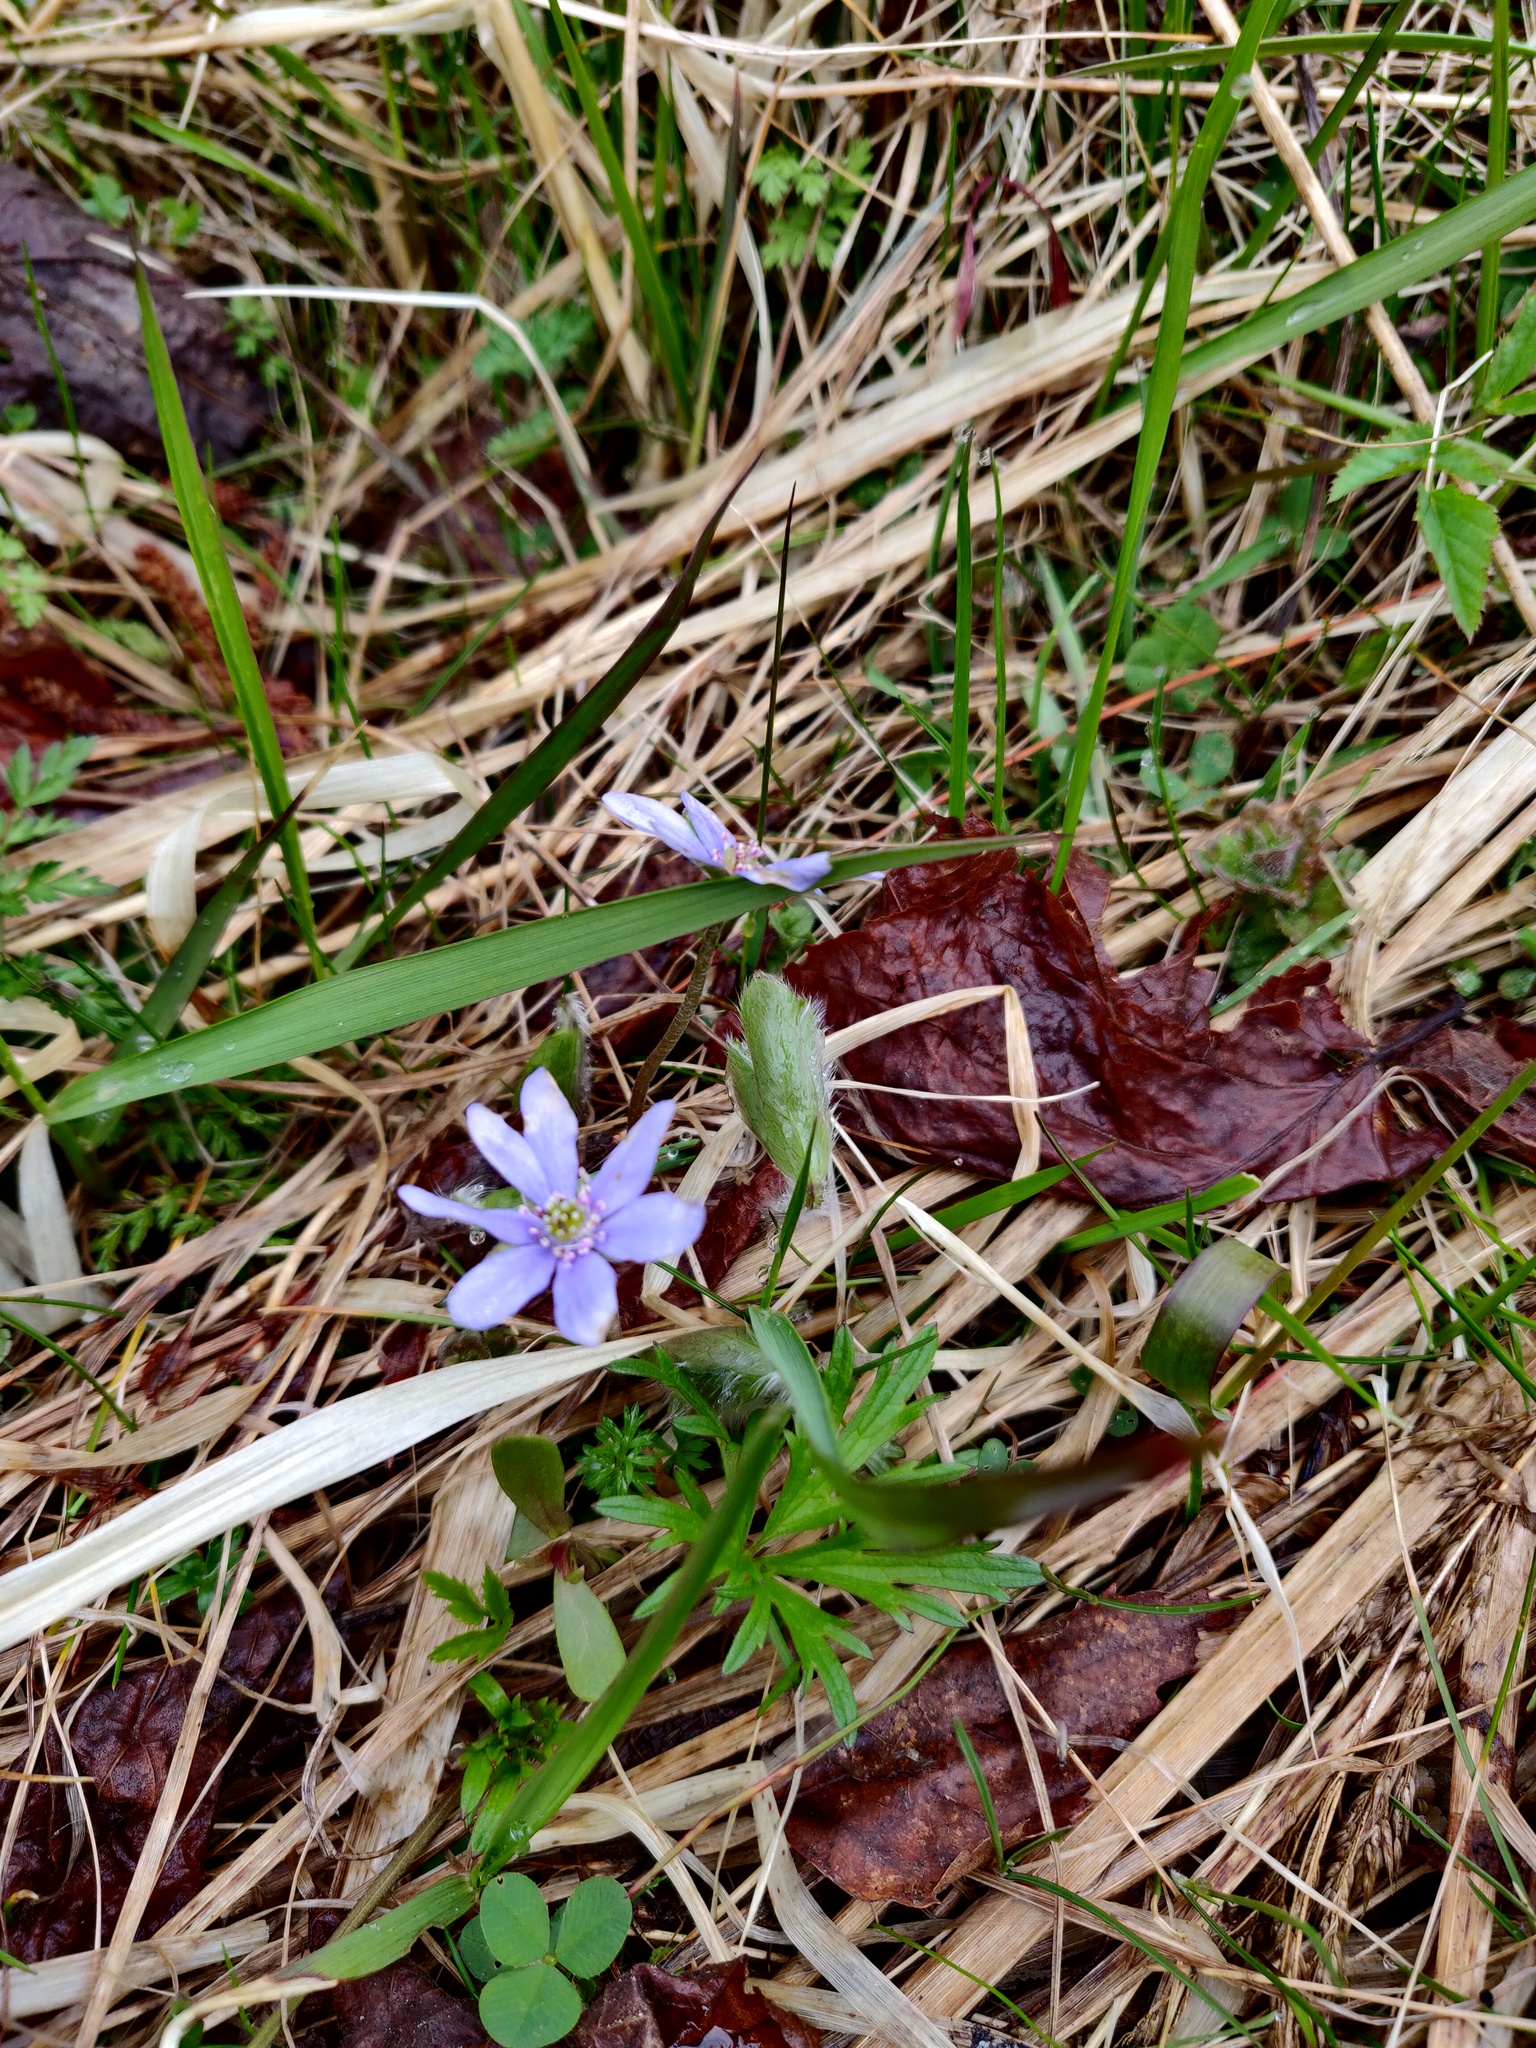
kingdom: Plantae
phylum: Tracheophyta
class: Magnoliopsida
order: Ranunculales
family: Ranunculaceae
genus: Hepatica
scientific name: Hepatica nobilis
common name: Liverleaf
